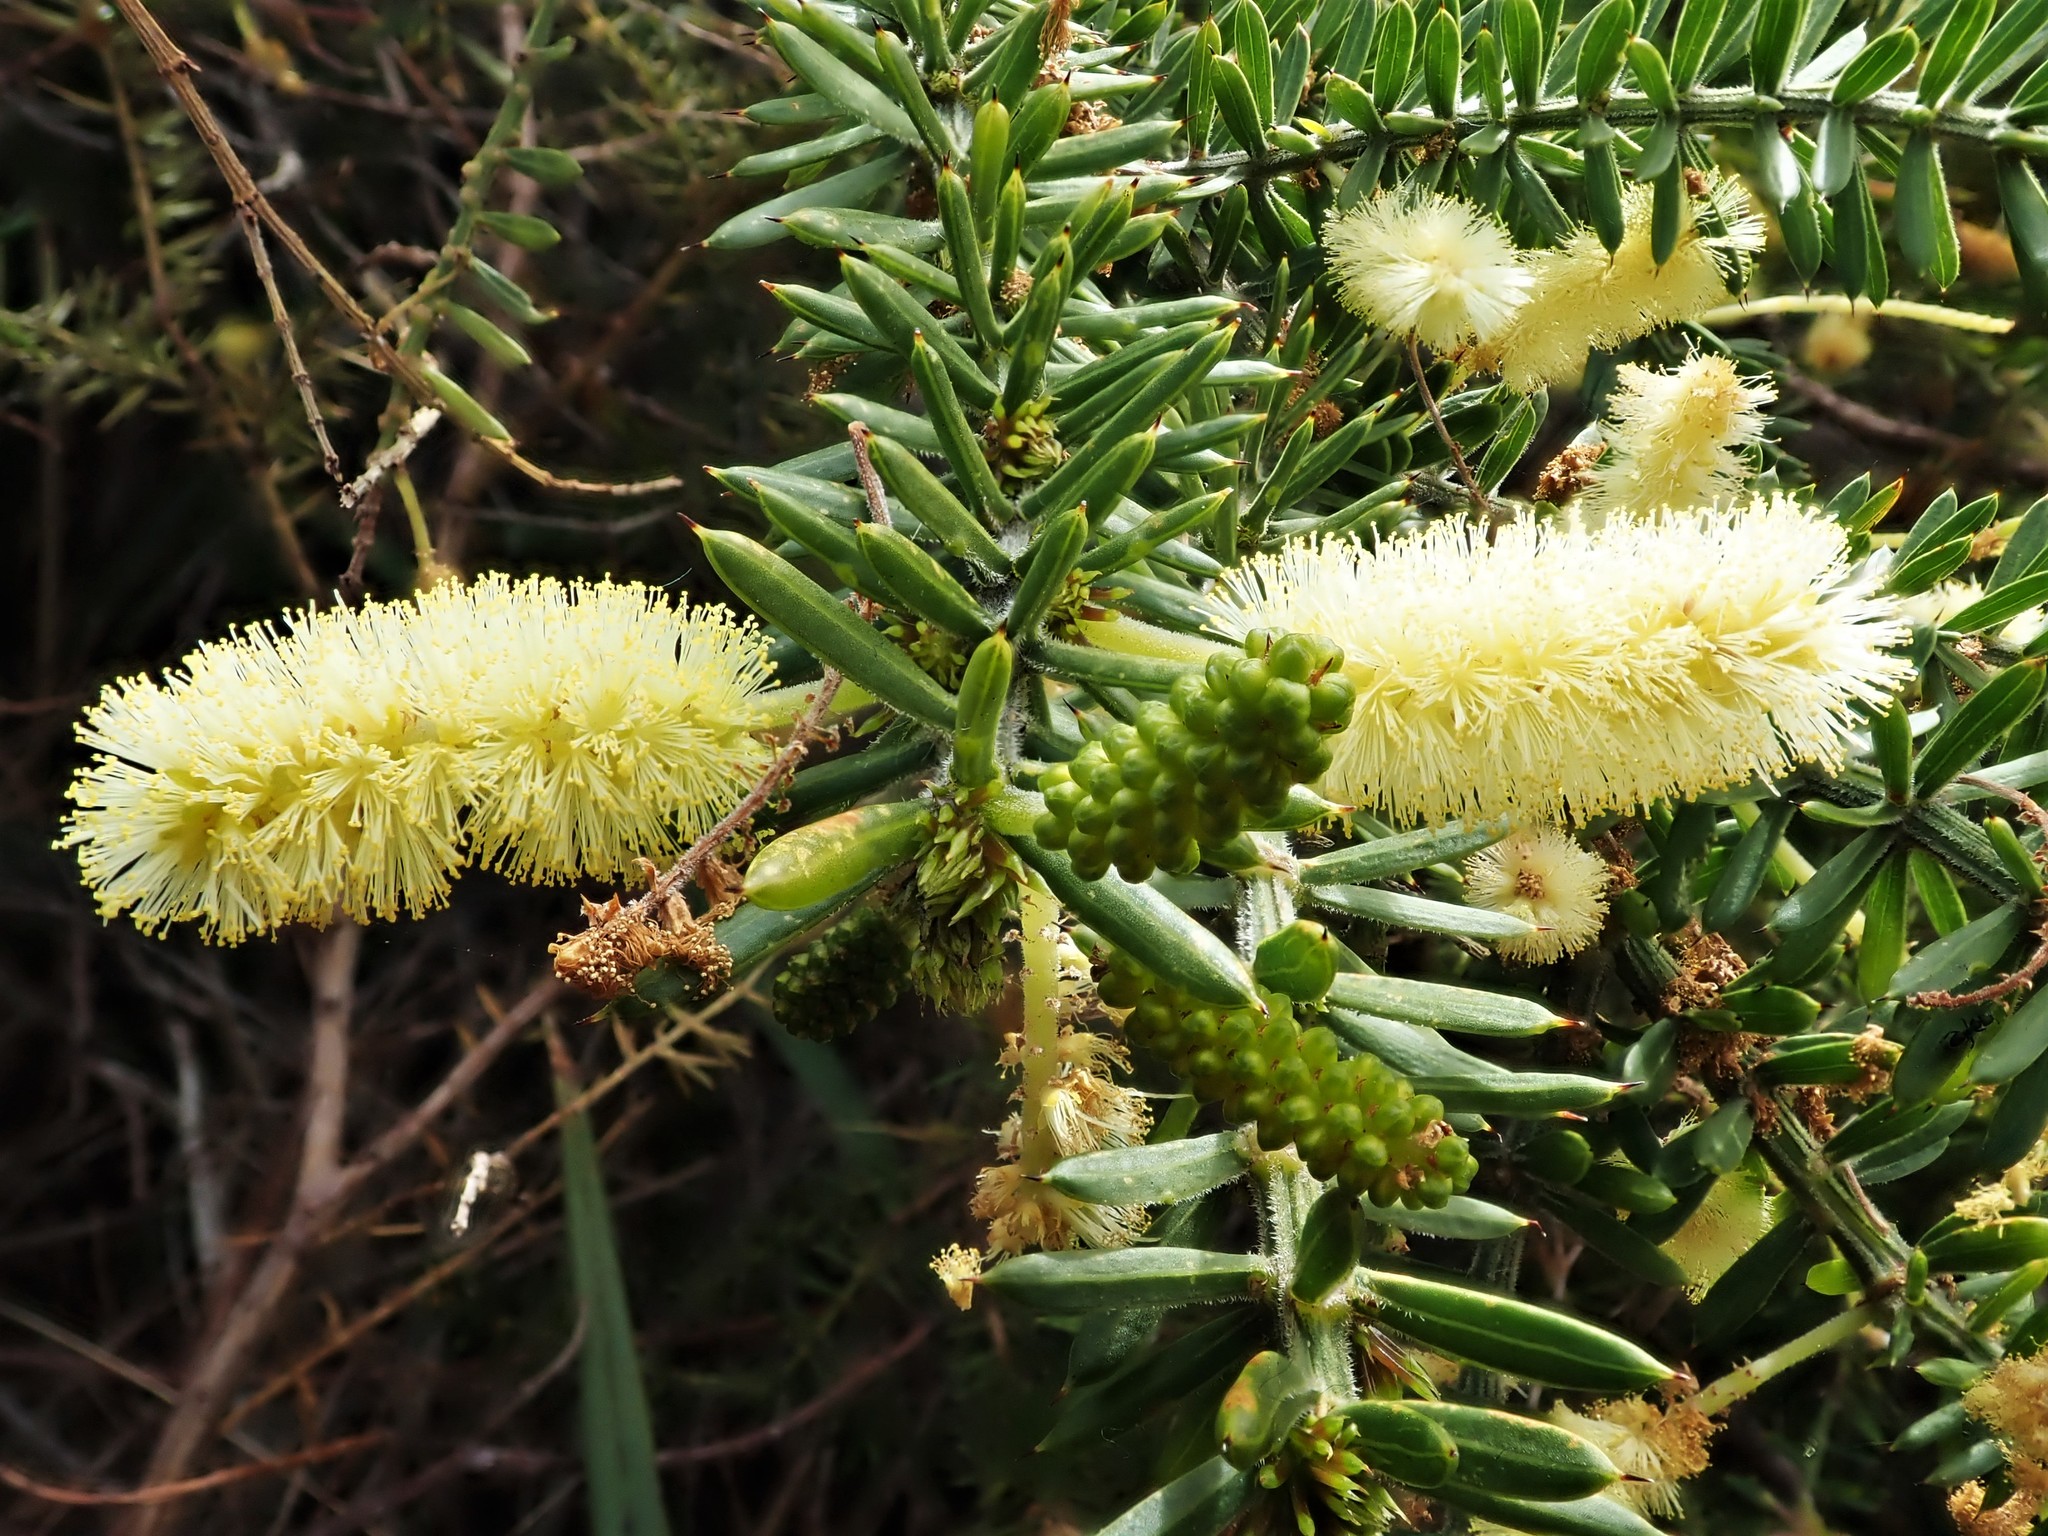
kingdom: Plantae
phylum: Tracheophyta
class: Magnoliopsida
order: Fabales
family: Fabaceae
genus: Acacia
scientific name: Acacia verticillata
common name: Prickly moses
